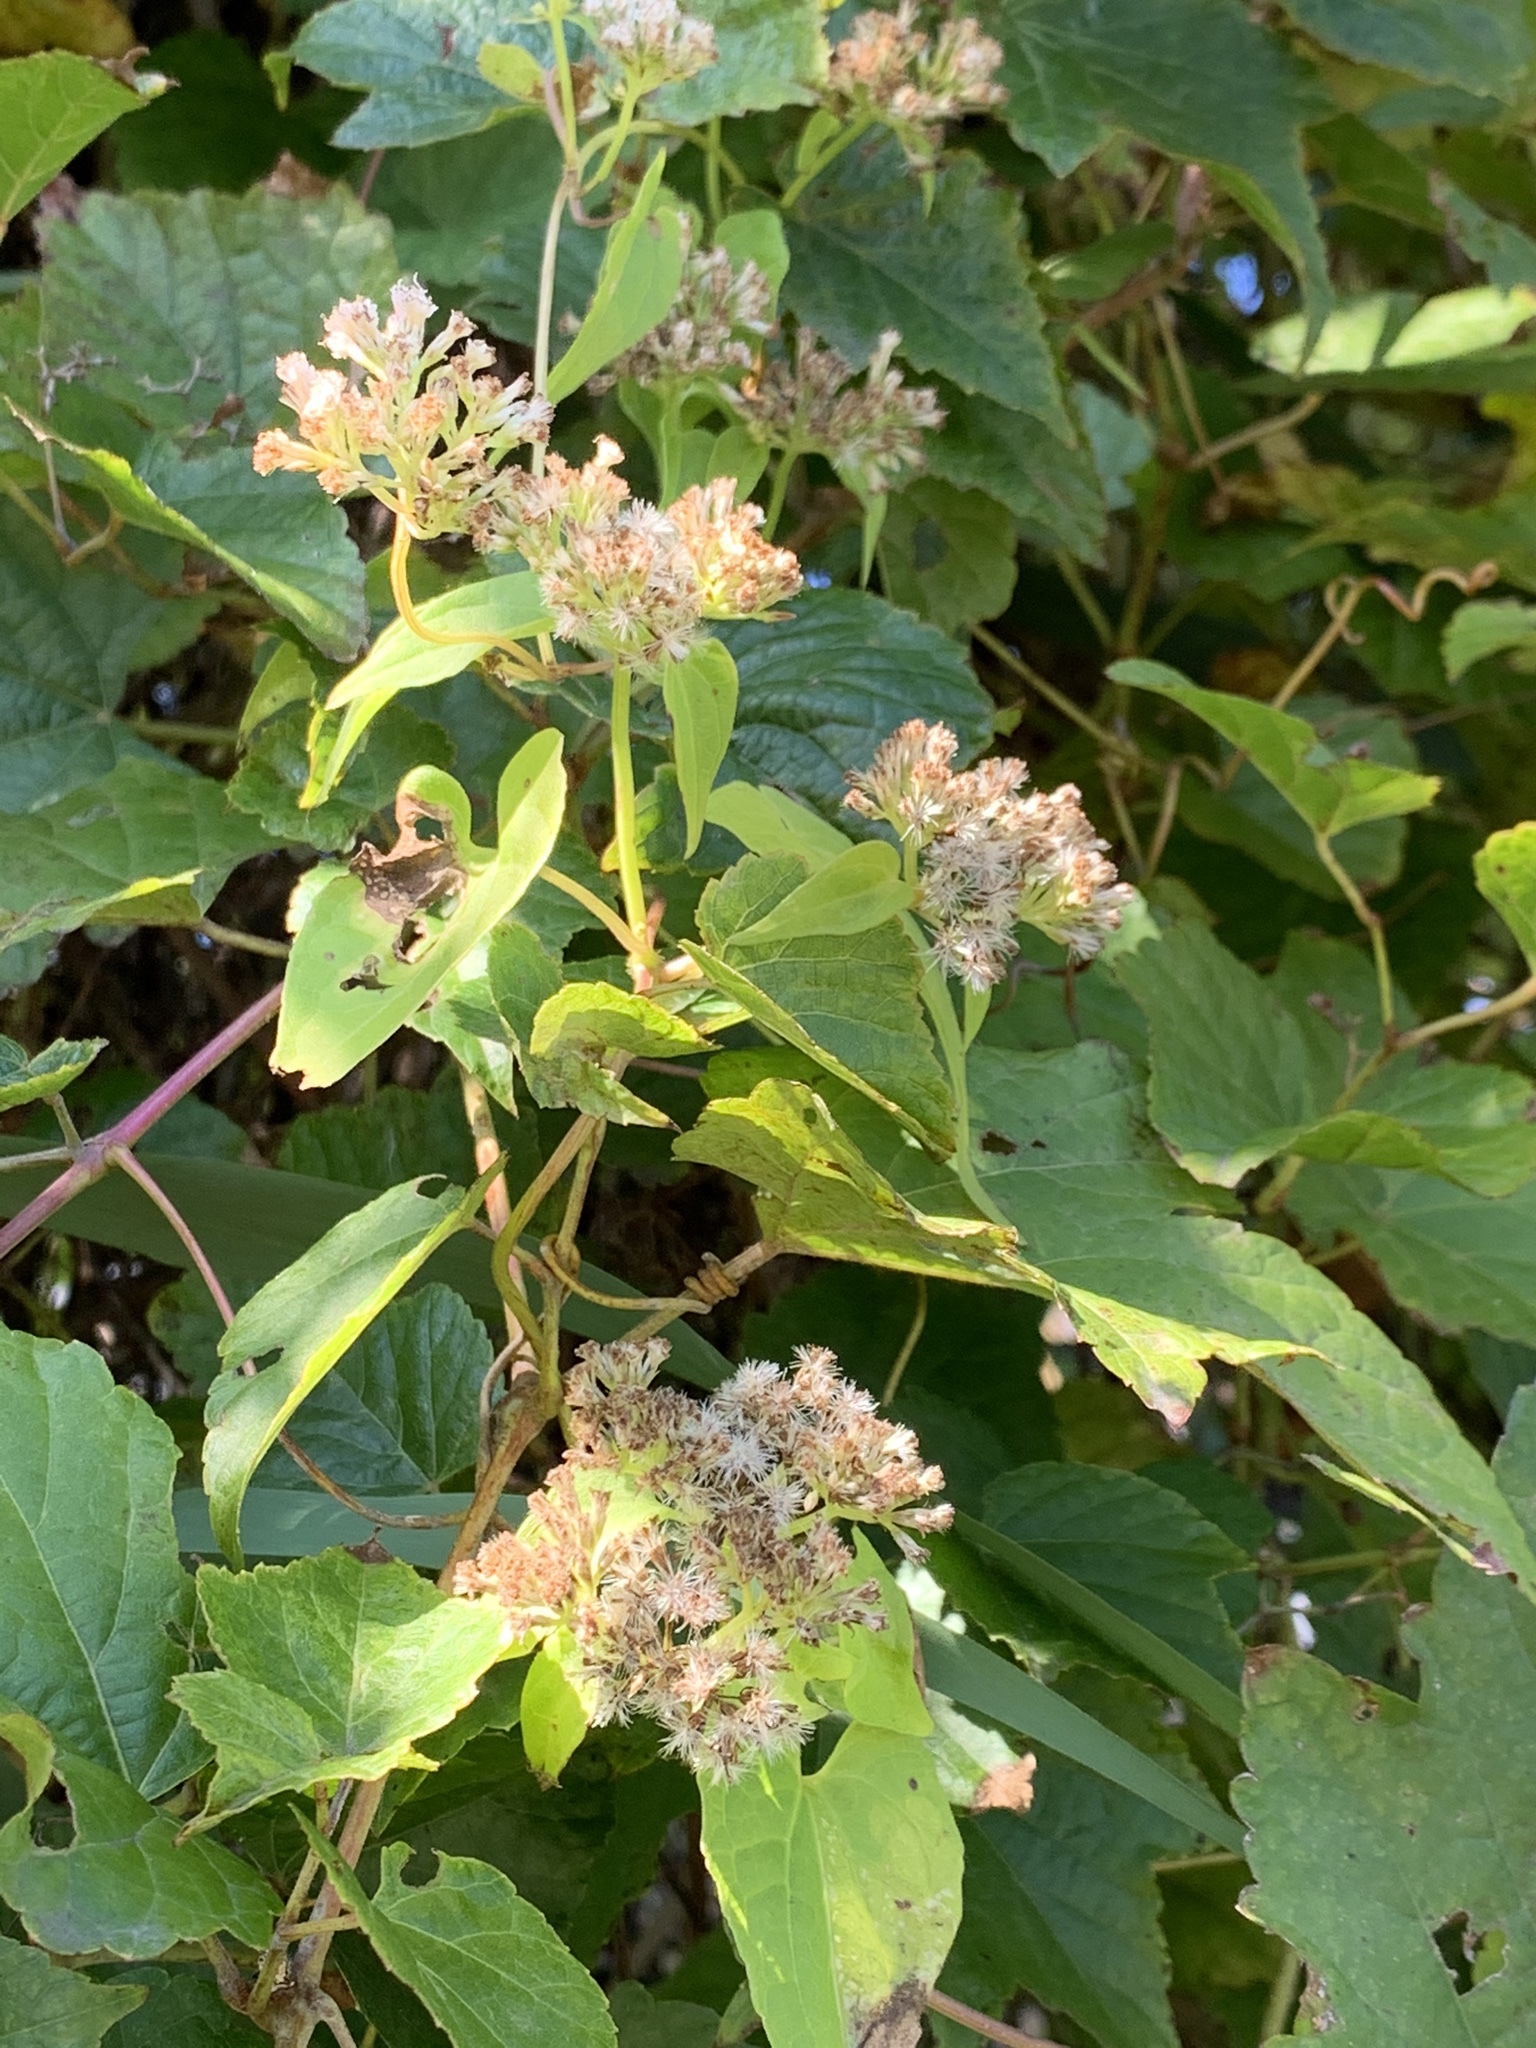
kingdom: Plantae
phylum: Tracheophyta
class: Magnoliopsida
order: Asterales
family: Asteraceae
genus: Mikania
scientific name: Mikania scandens
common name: Climbing hempvine
